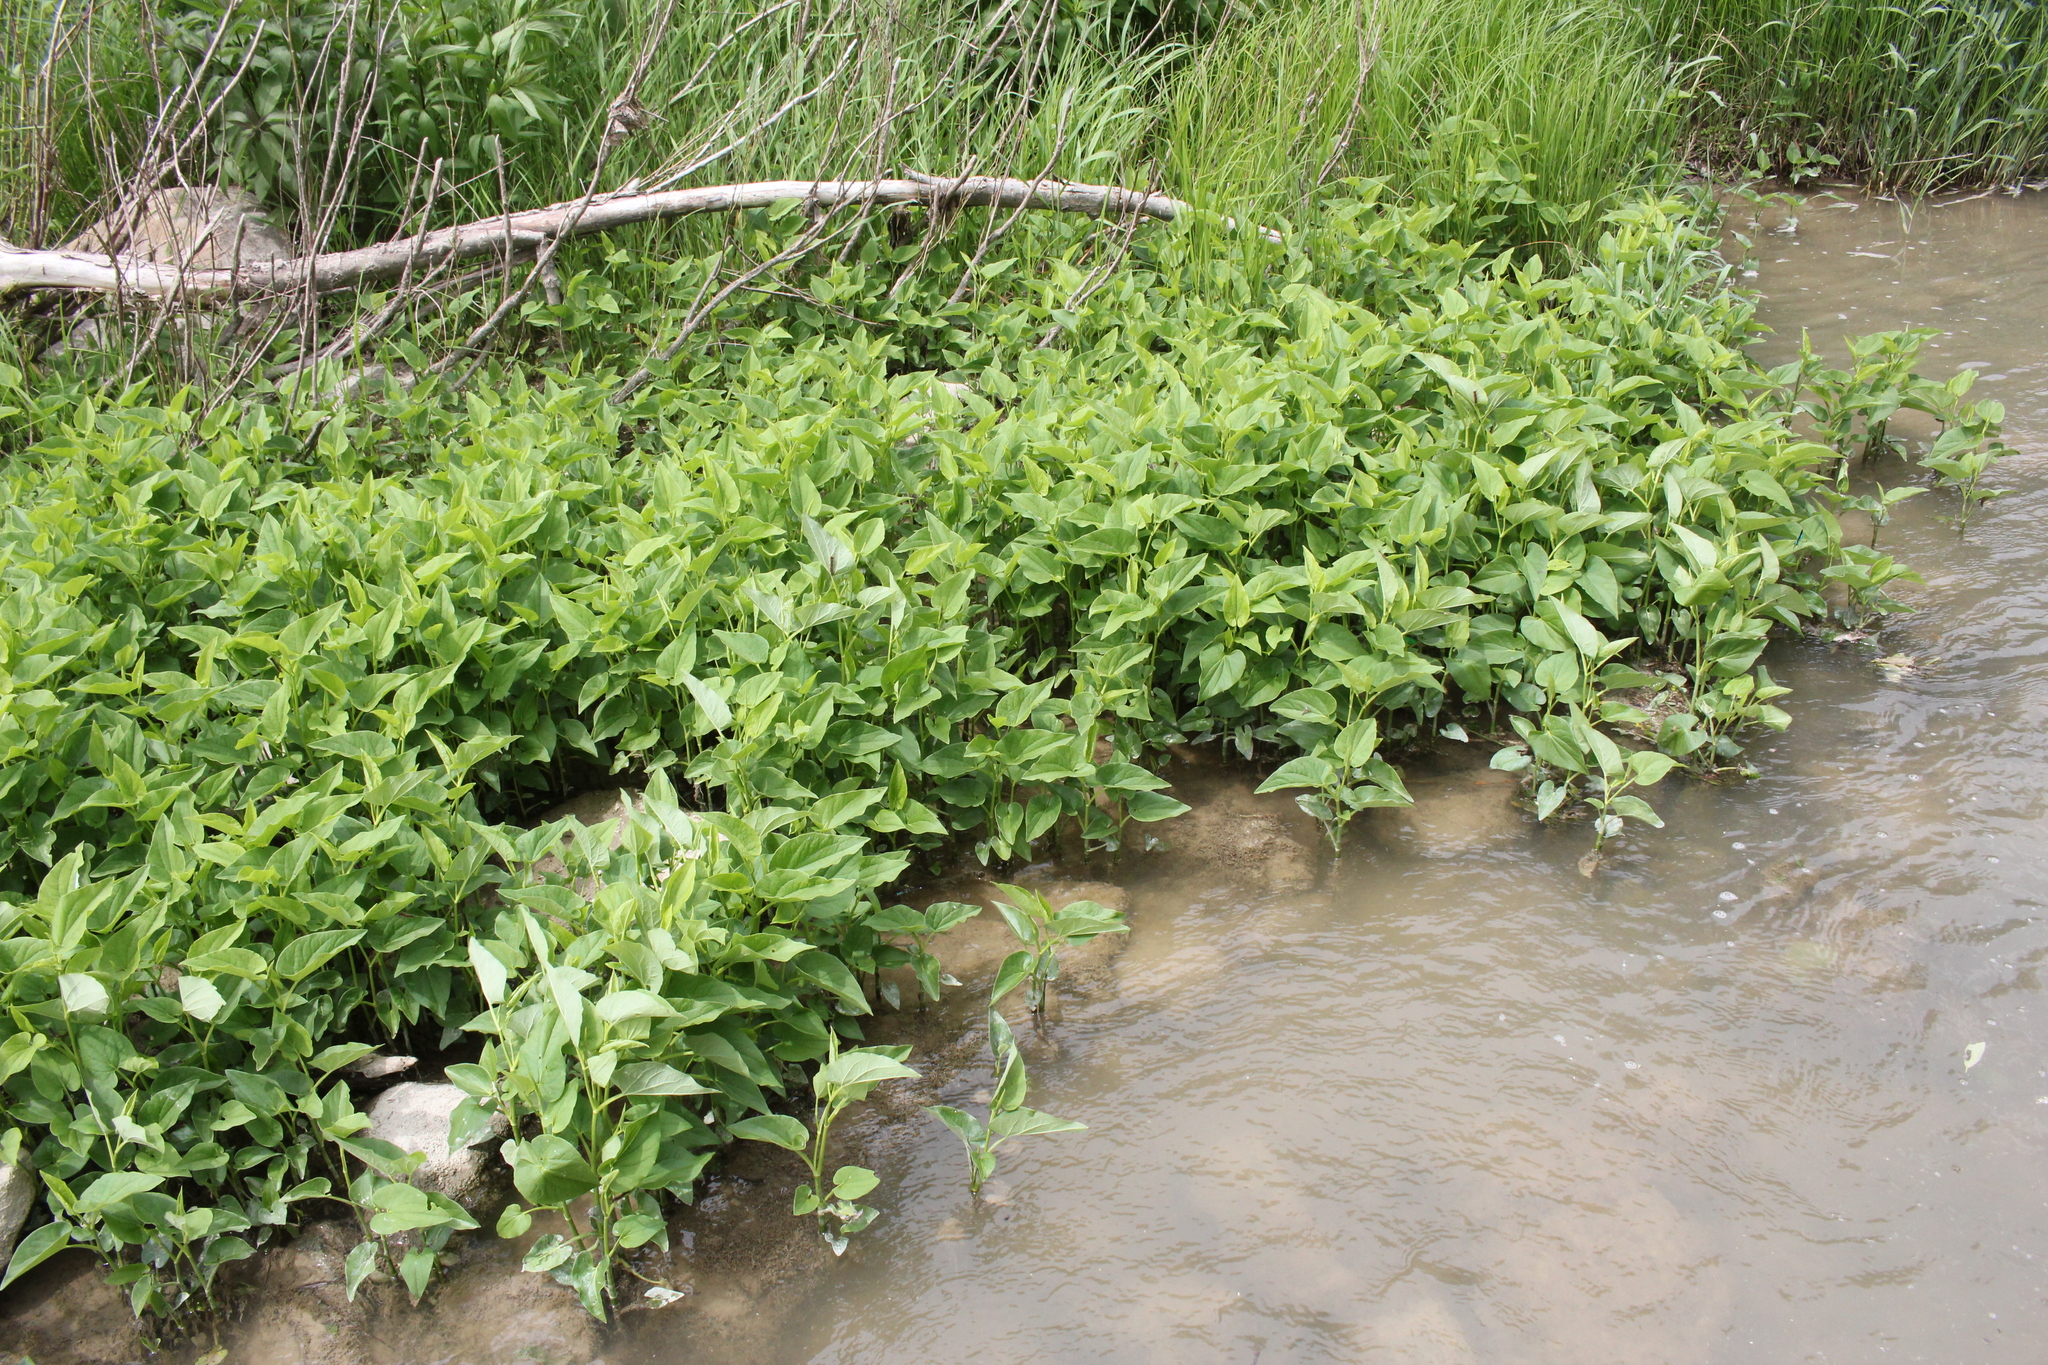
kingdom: Plantae
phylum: Tracheophyta
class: Magnoliopsida
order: Piperales
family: Saururaceae
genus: Saururus
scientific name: Saururus cernuus
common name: Lizard's-tail
